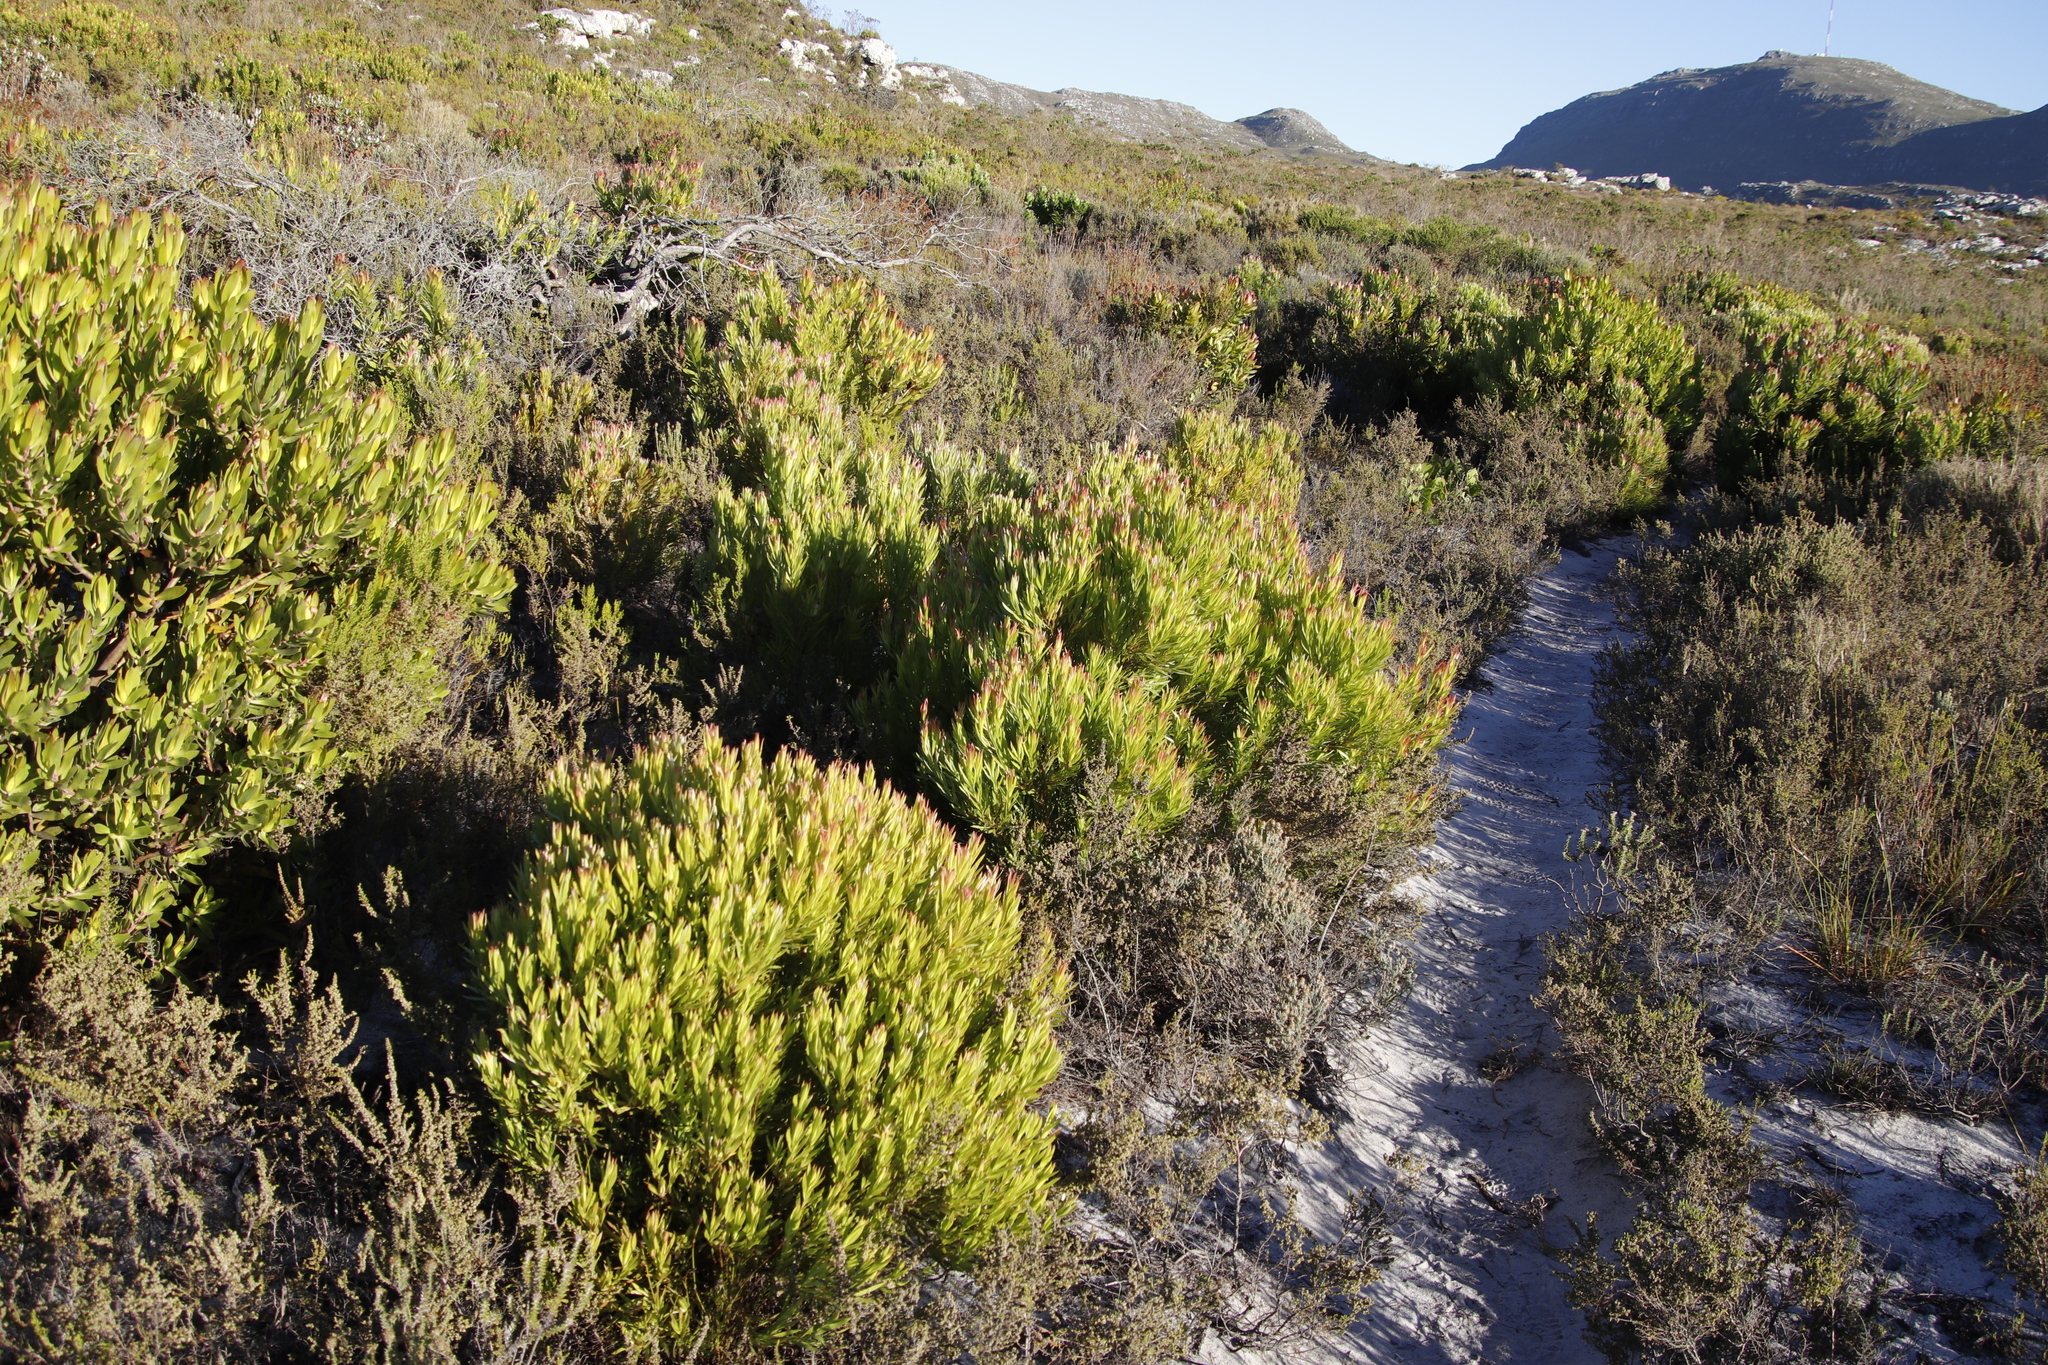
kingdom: Plantae
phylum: Tracheophyta
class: Magnoliopsida
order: Proteales
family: Proteaceae
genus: Leucadendron
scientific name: Leucadendron xanthoconus
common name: Sickle-leaf conebush
